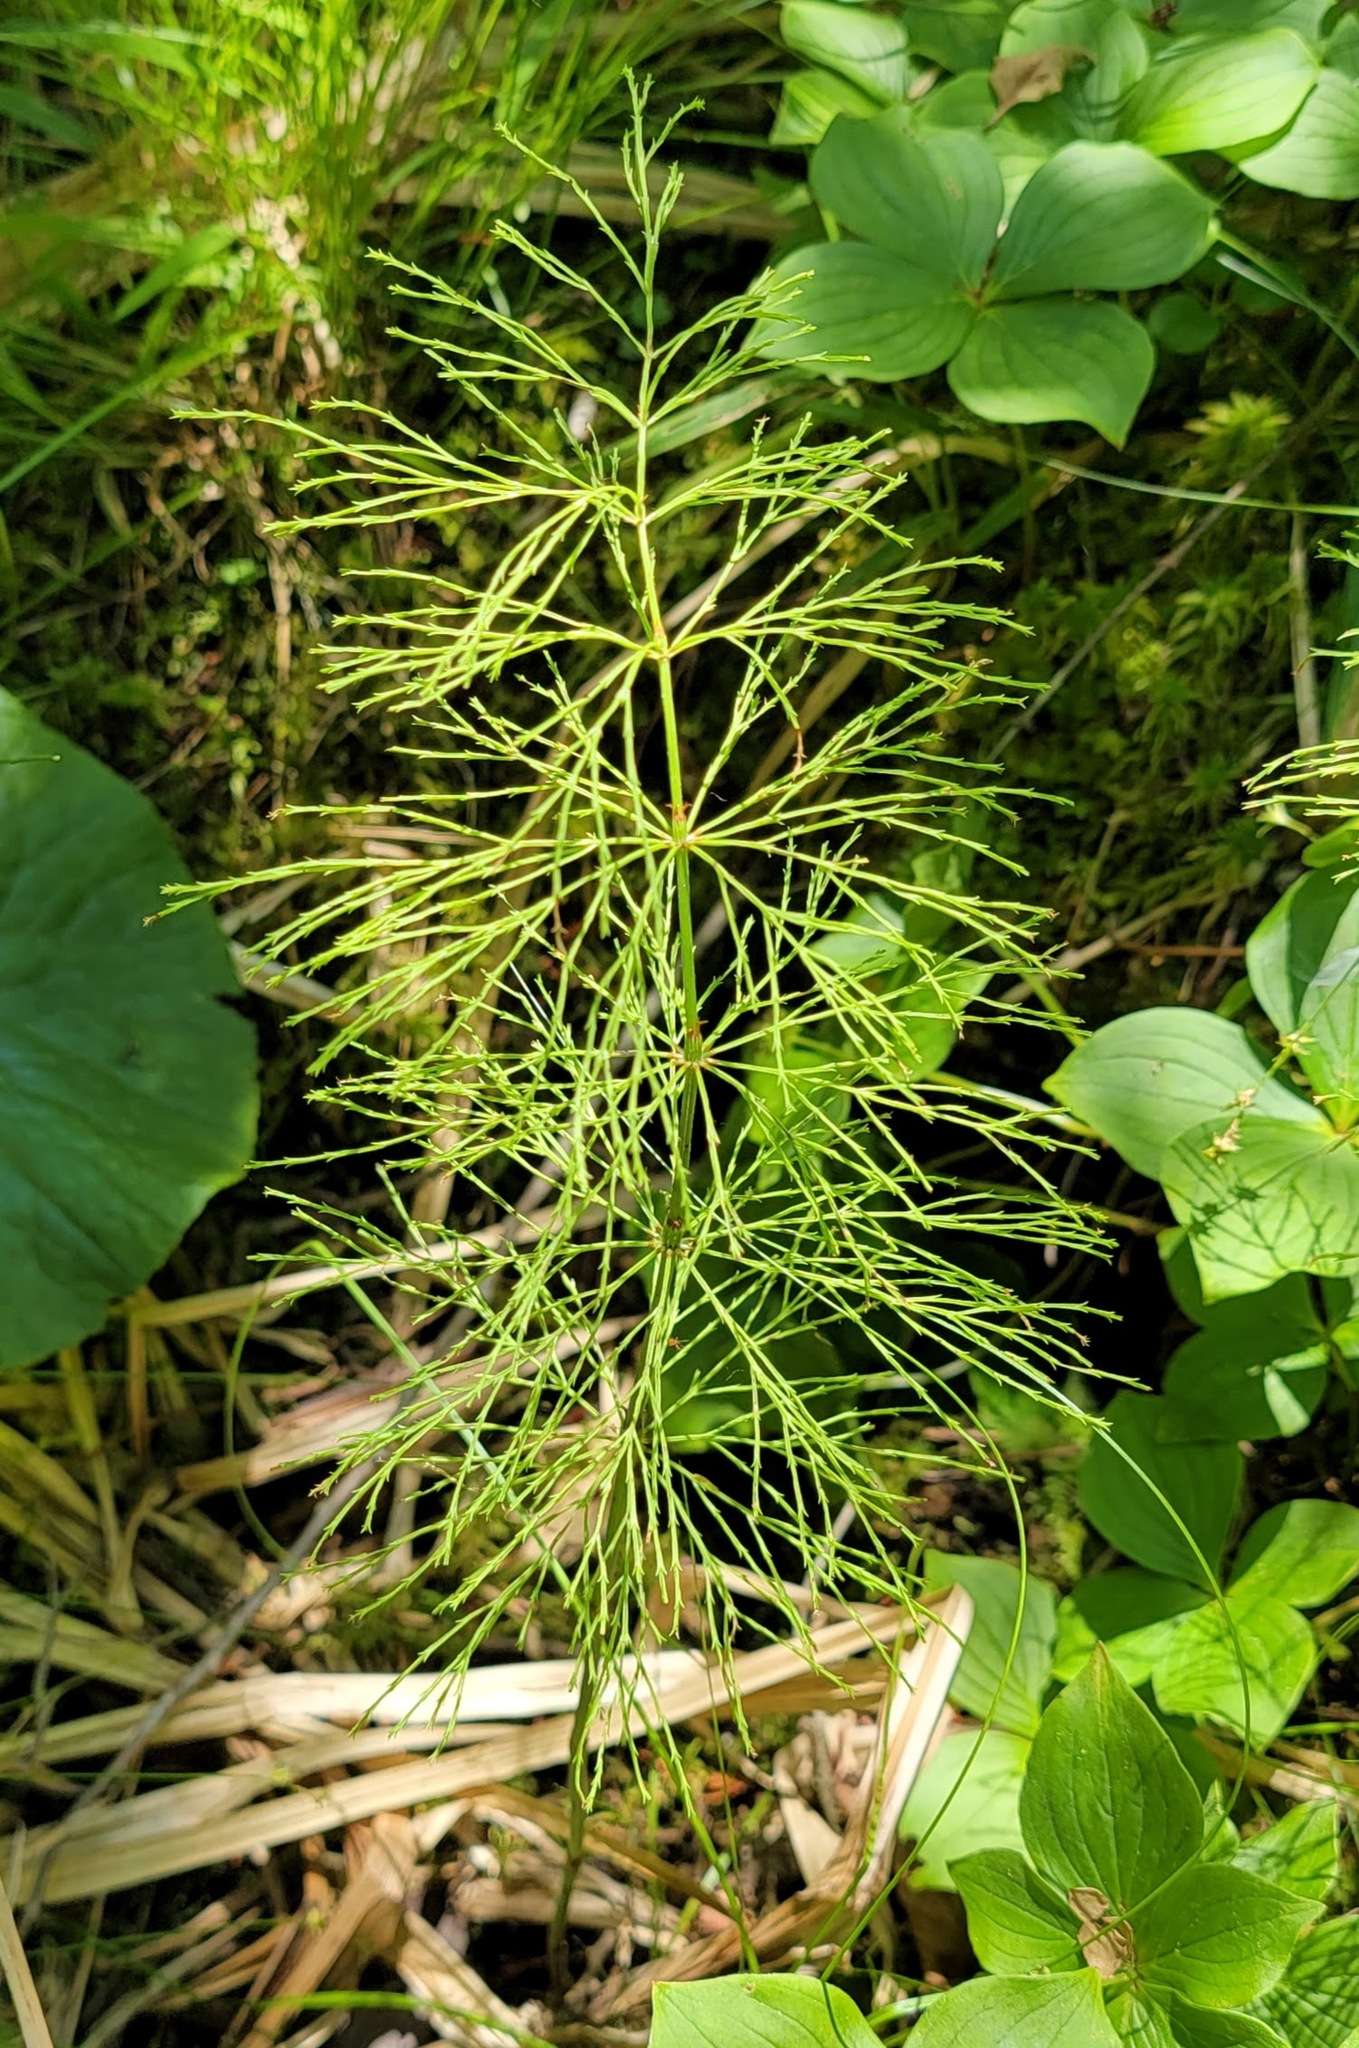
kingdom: Plantae
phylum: Tracheophyta
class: Polypodiopsida
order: Equisetales
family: Equisetaceae
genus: Equisetum
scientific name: Equisetum sylvaticum
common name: Wood horsetail
